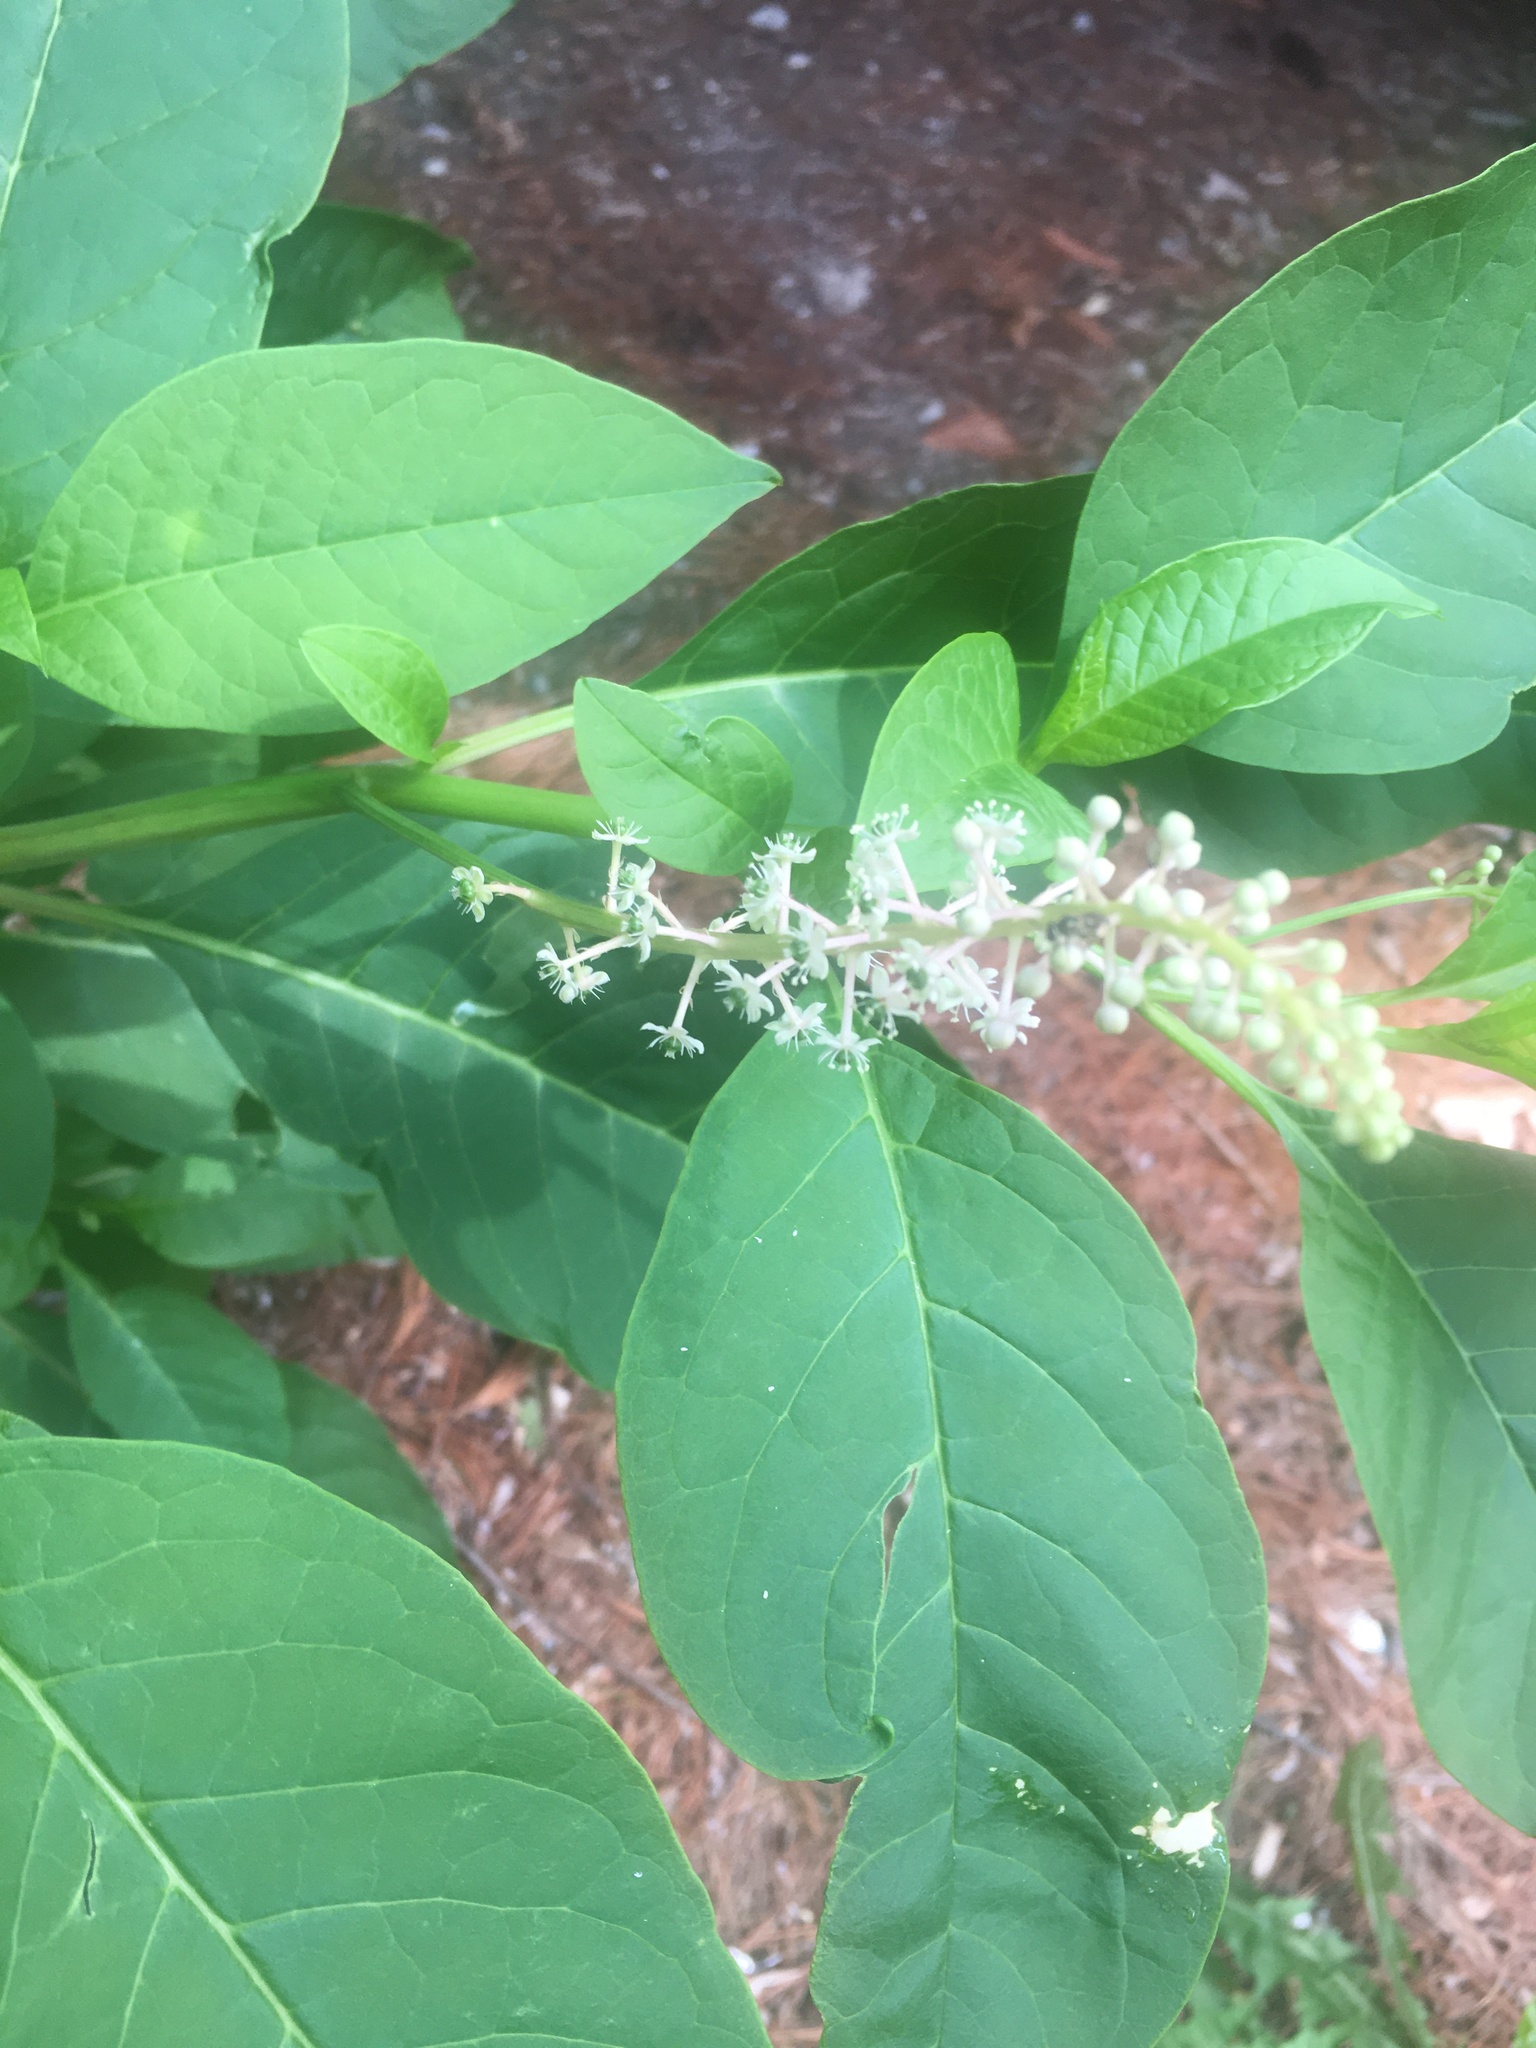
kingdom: Plantae
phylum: Tracheophyta
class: Magnoliopsida
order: Caryophyllales
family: Phytolaccaceae
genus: Phytolacca
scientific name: Phytolacca americana
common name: American pokeweed
